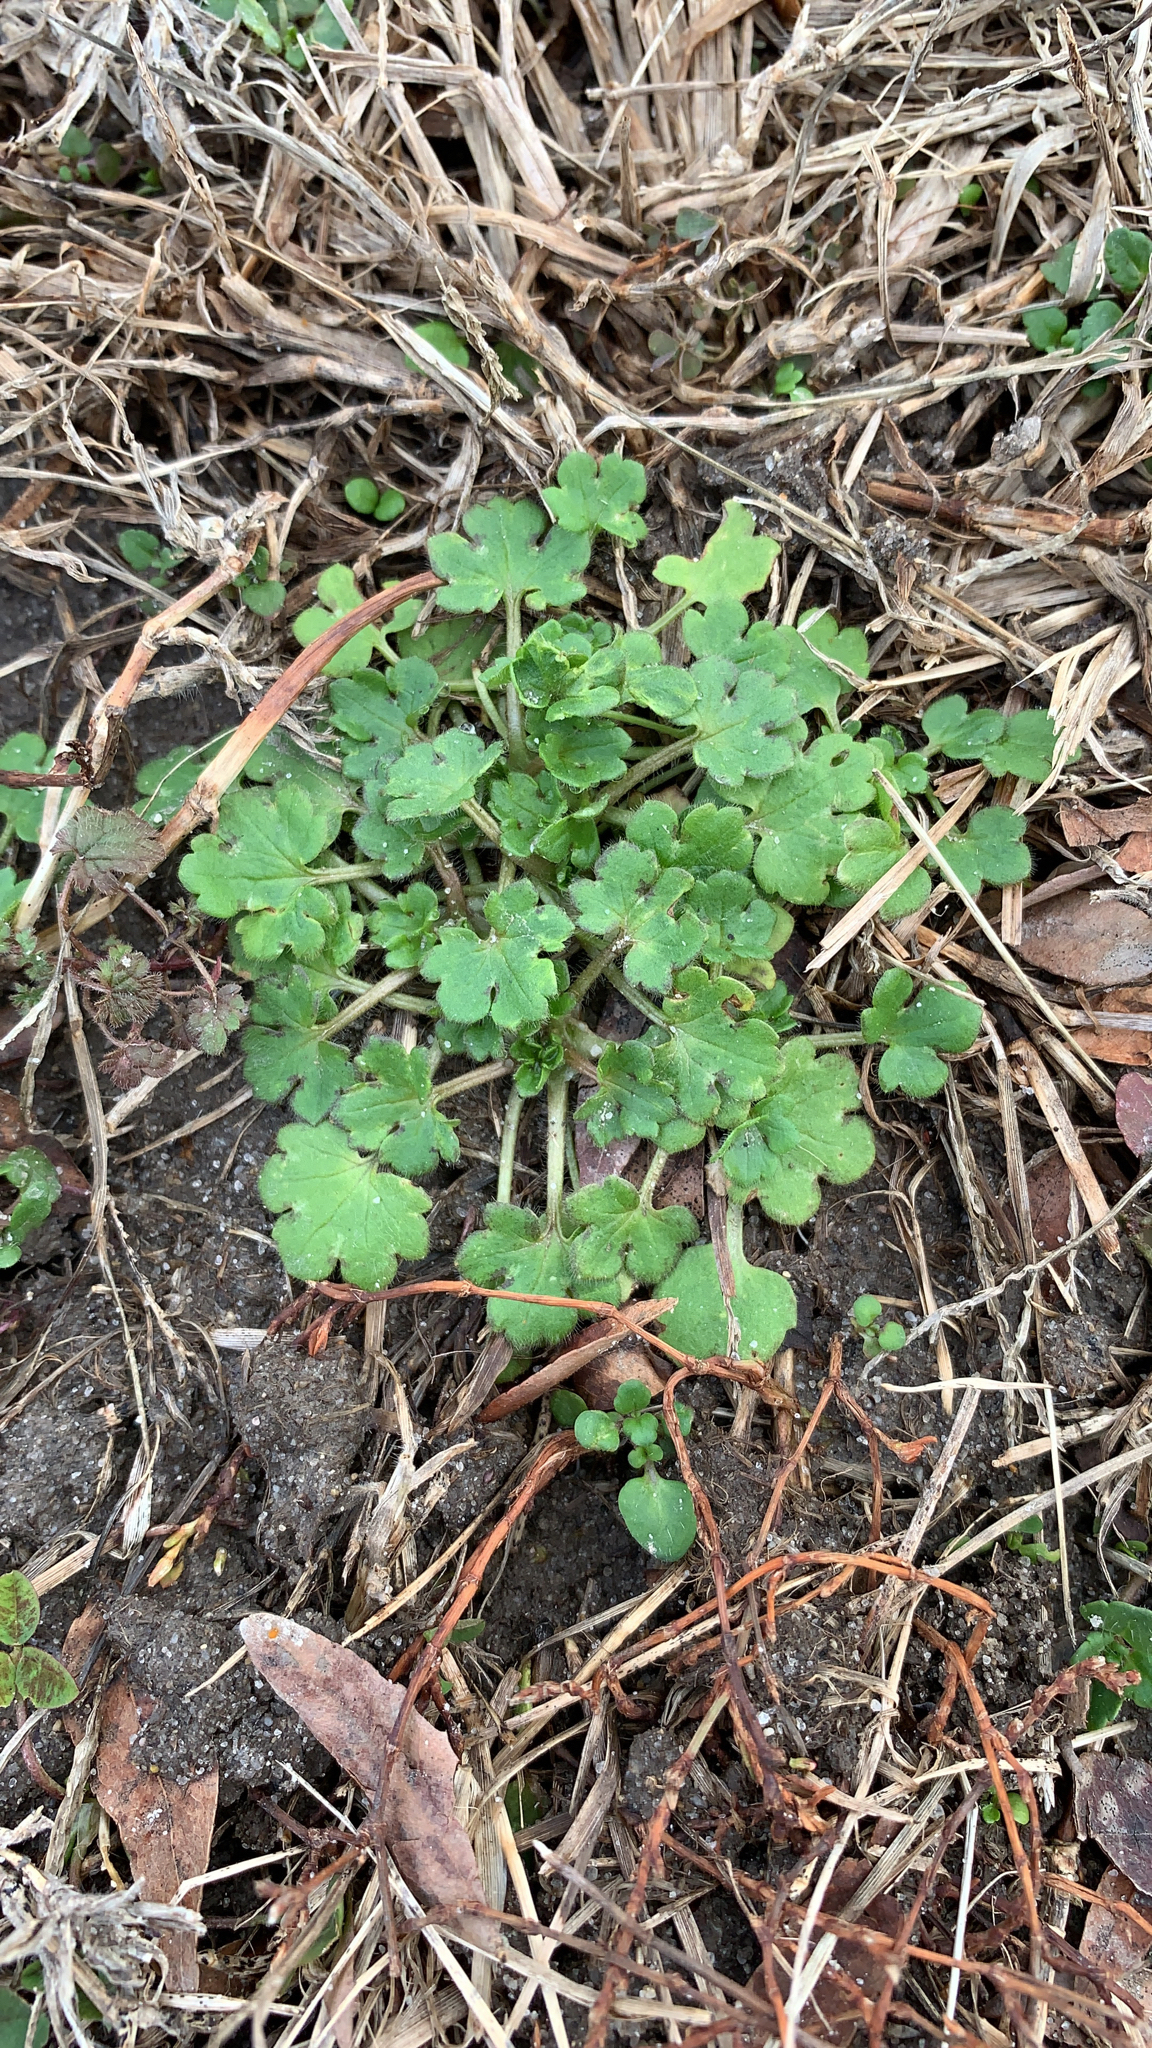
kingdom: Plantae
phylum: Tracheophyta
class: Magnoliopsida
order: Ranunculales
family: Ranunculaceae
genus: Ranunculus
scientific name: Ranunculus
